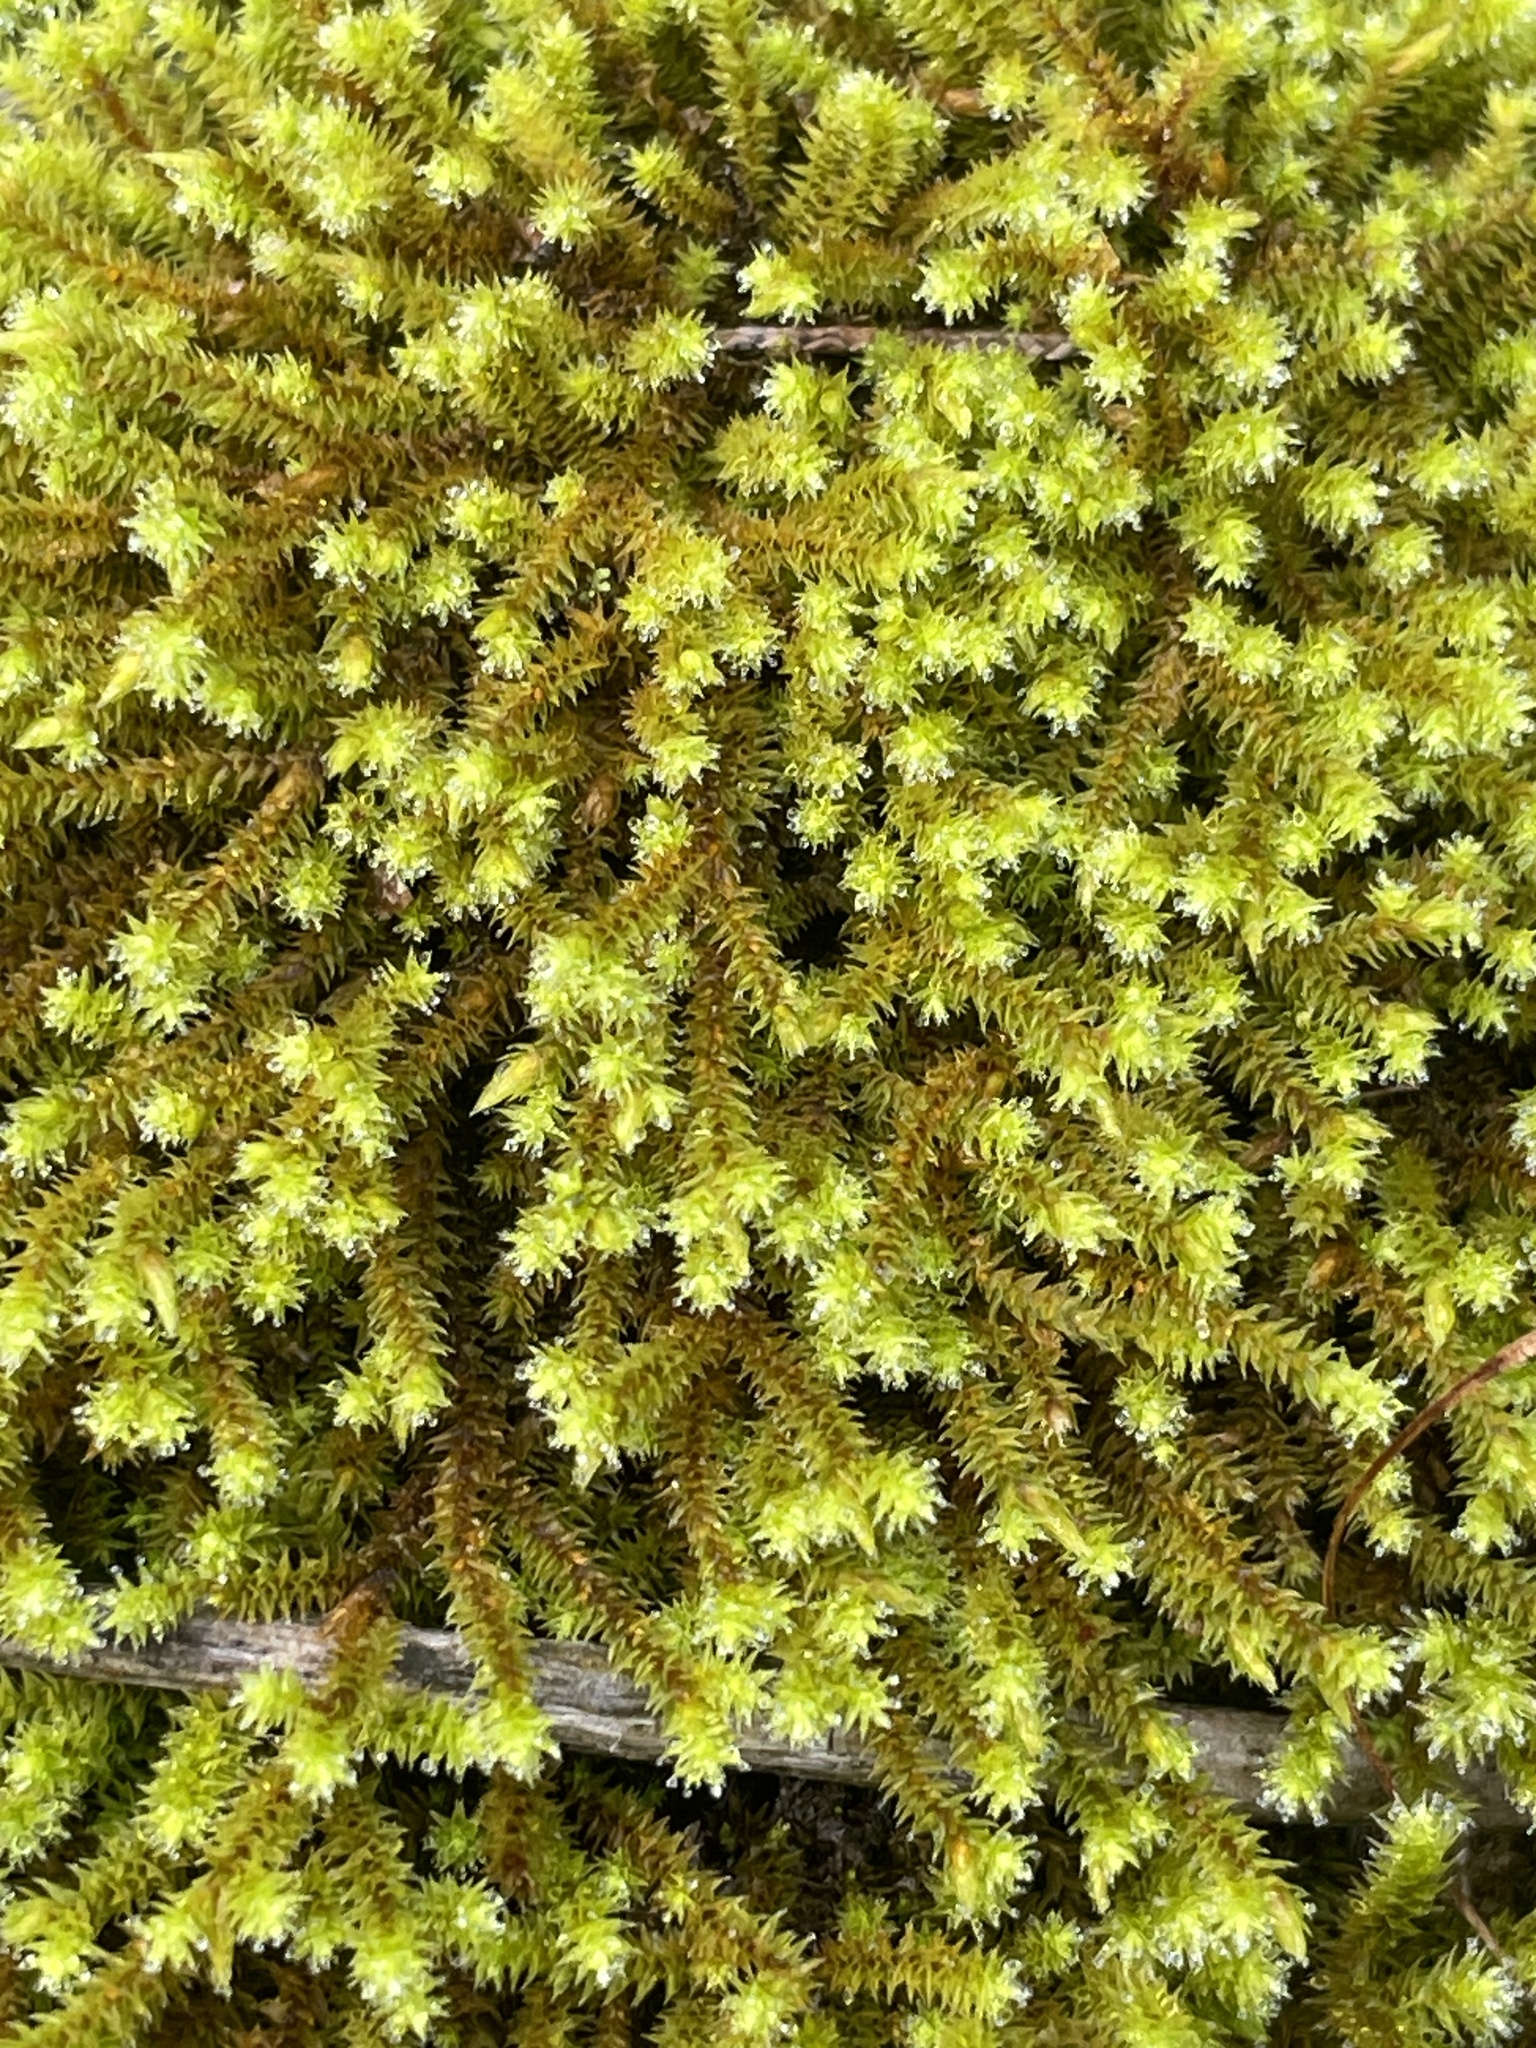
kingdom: Plantae
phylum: Bryophyta
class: Bryopsida
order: Hedwigiales
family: Hedwigiaceae
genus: Hedwigia
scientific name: Hedwigia ciliata
